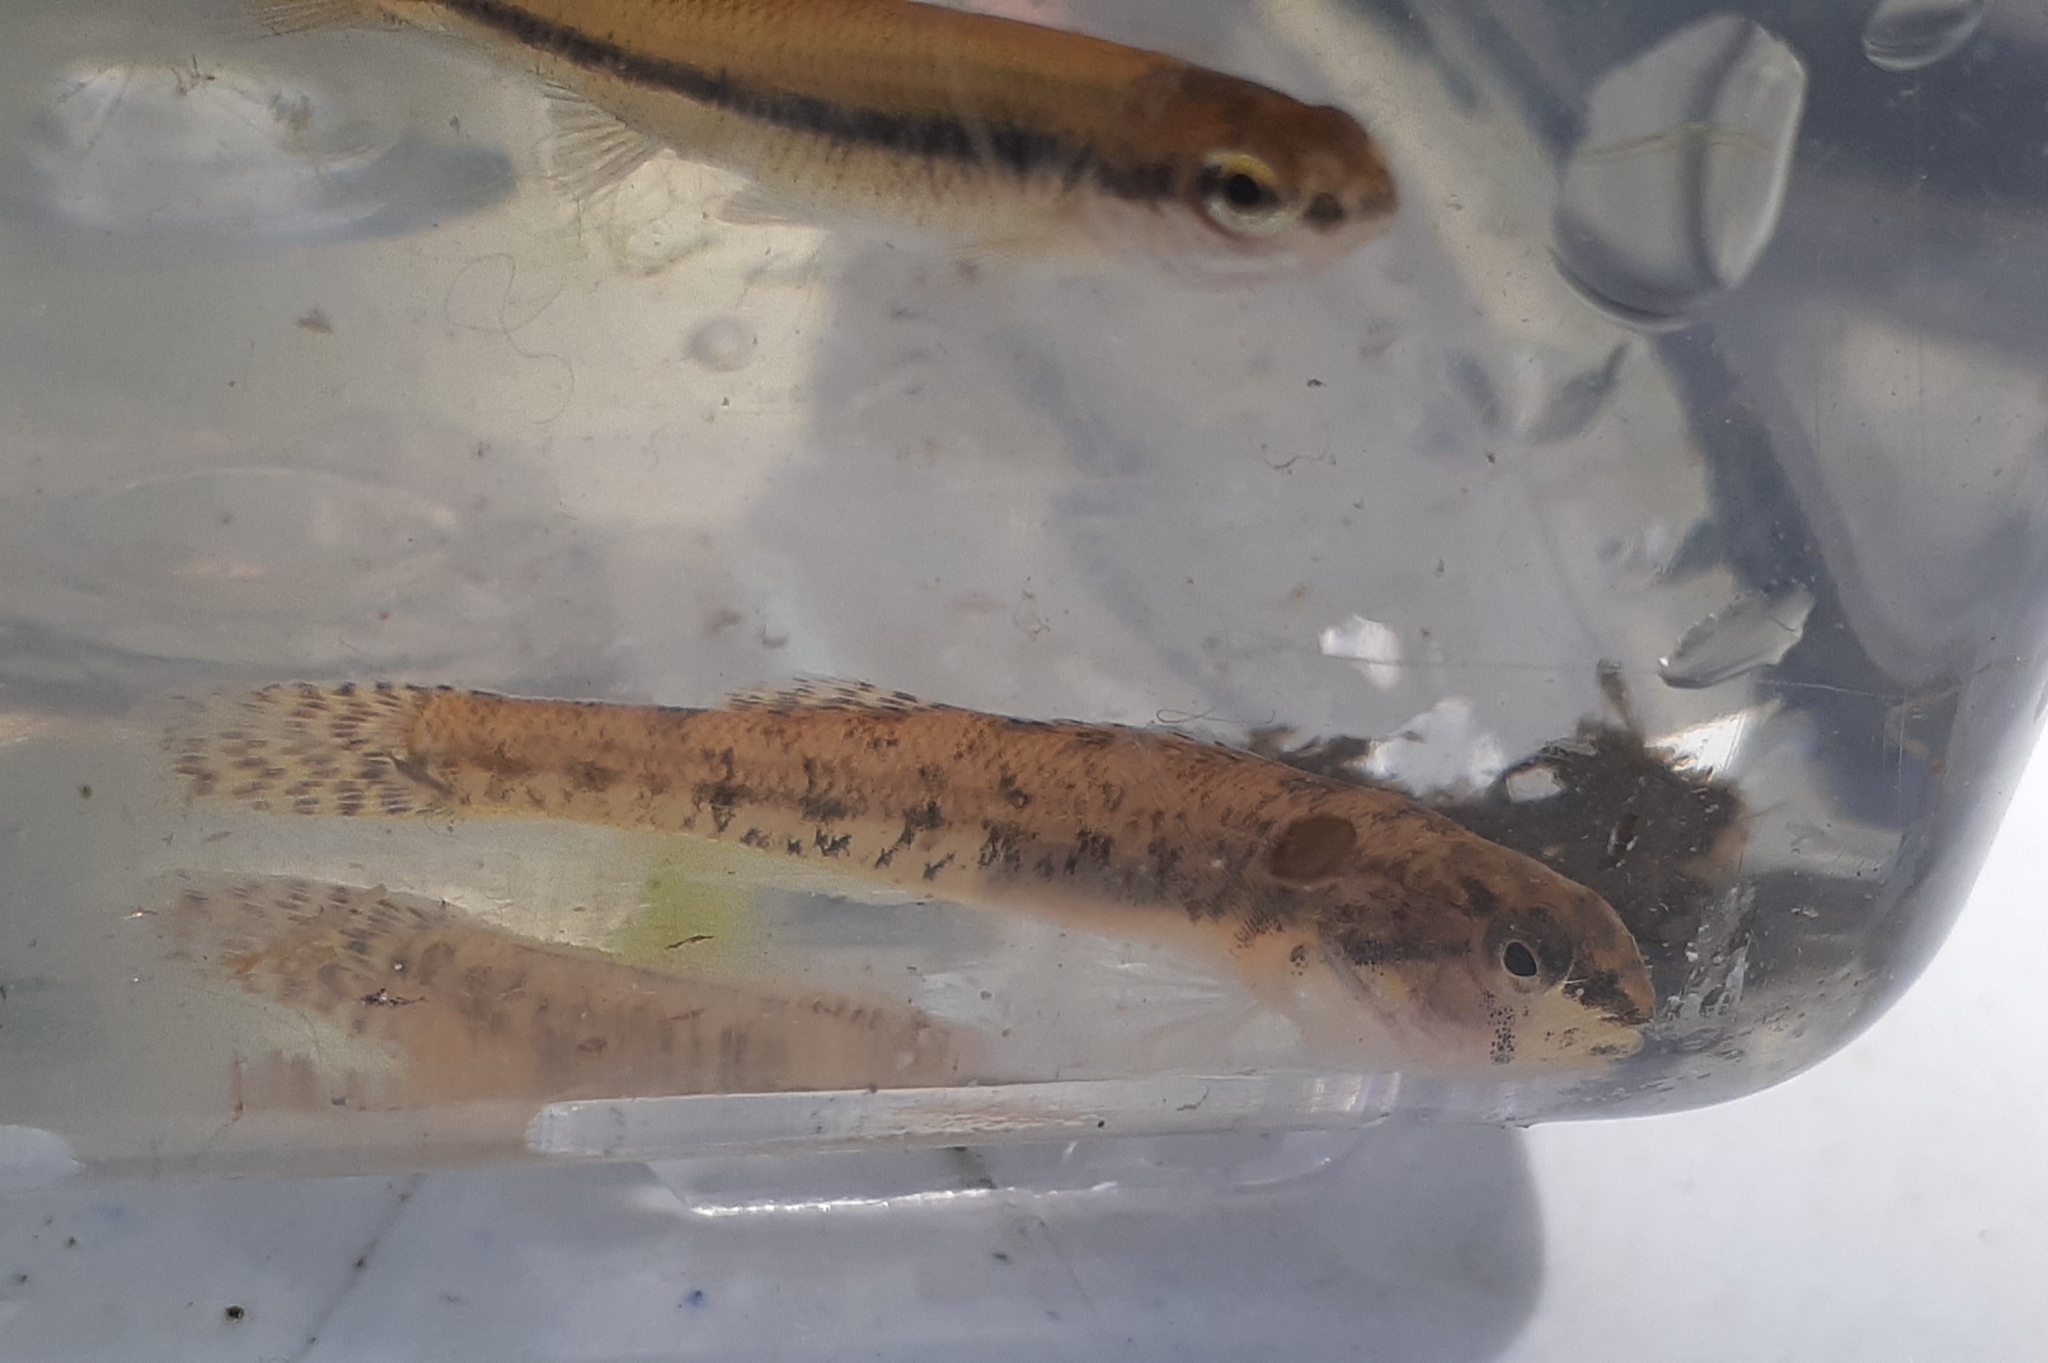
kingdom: Animalia
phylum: Chordata
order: Perciformes
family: Percidae
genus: Etheostoma
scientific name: Etheostoma nigrum
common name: Johnny darter
